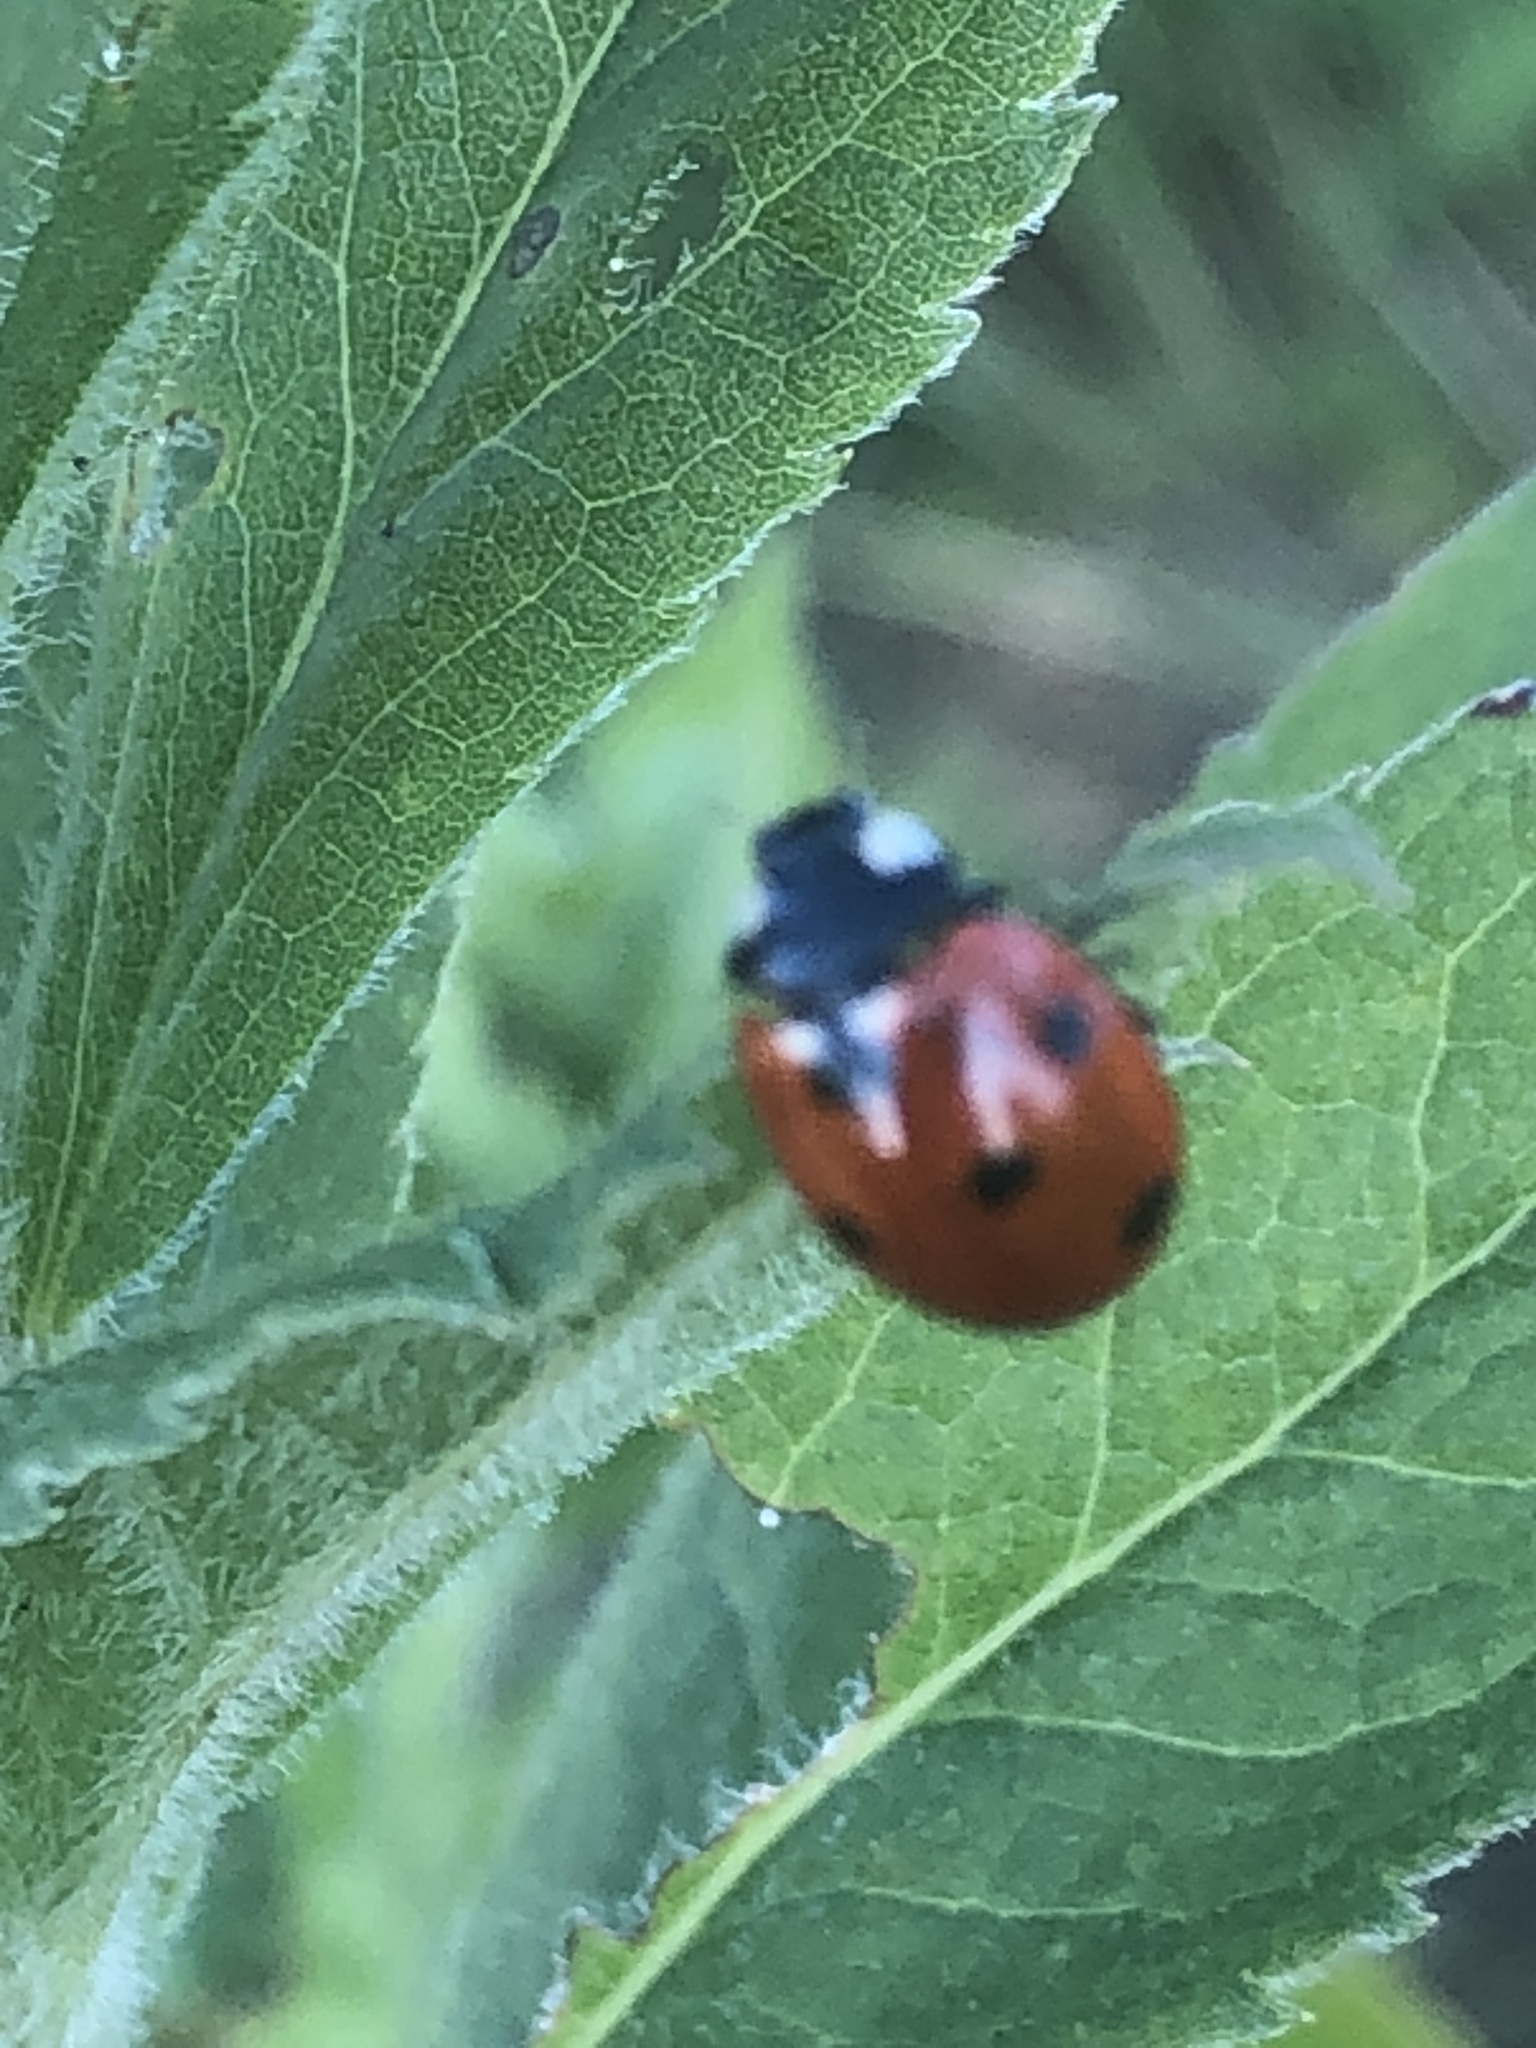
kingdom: Animalia
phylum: Arthropoda
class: Insecta
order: Coleoptera
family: Coccinellidae
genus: Coccinella
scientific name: Coccinella septempunctata
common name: Sevenspotted lady beetle
